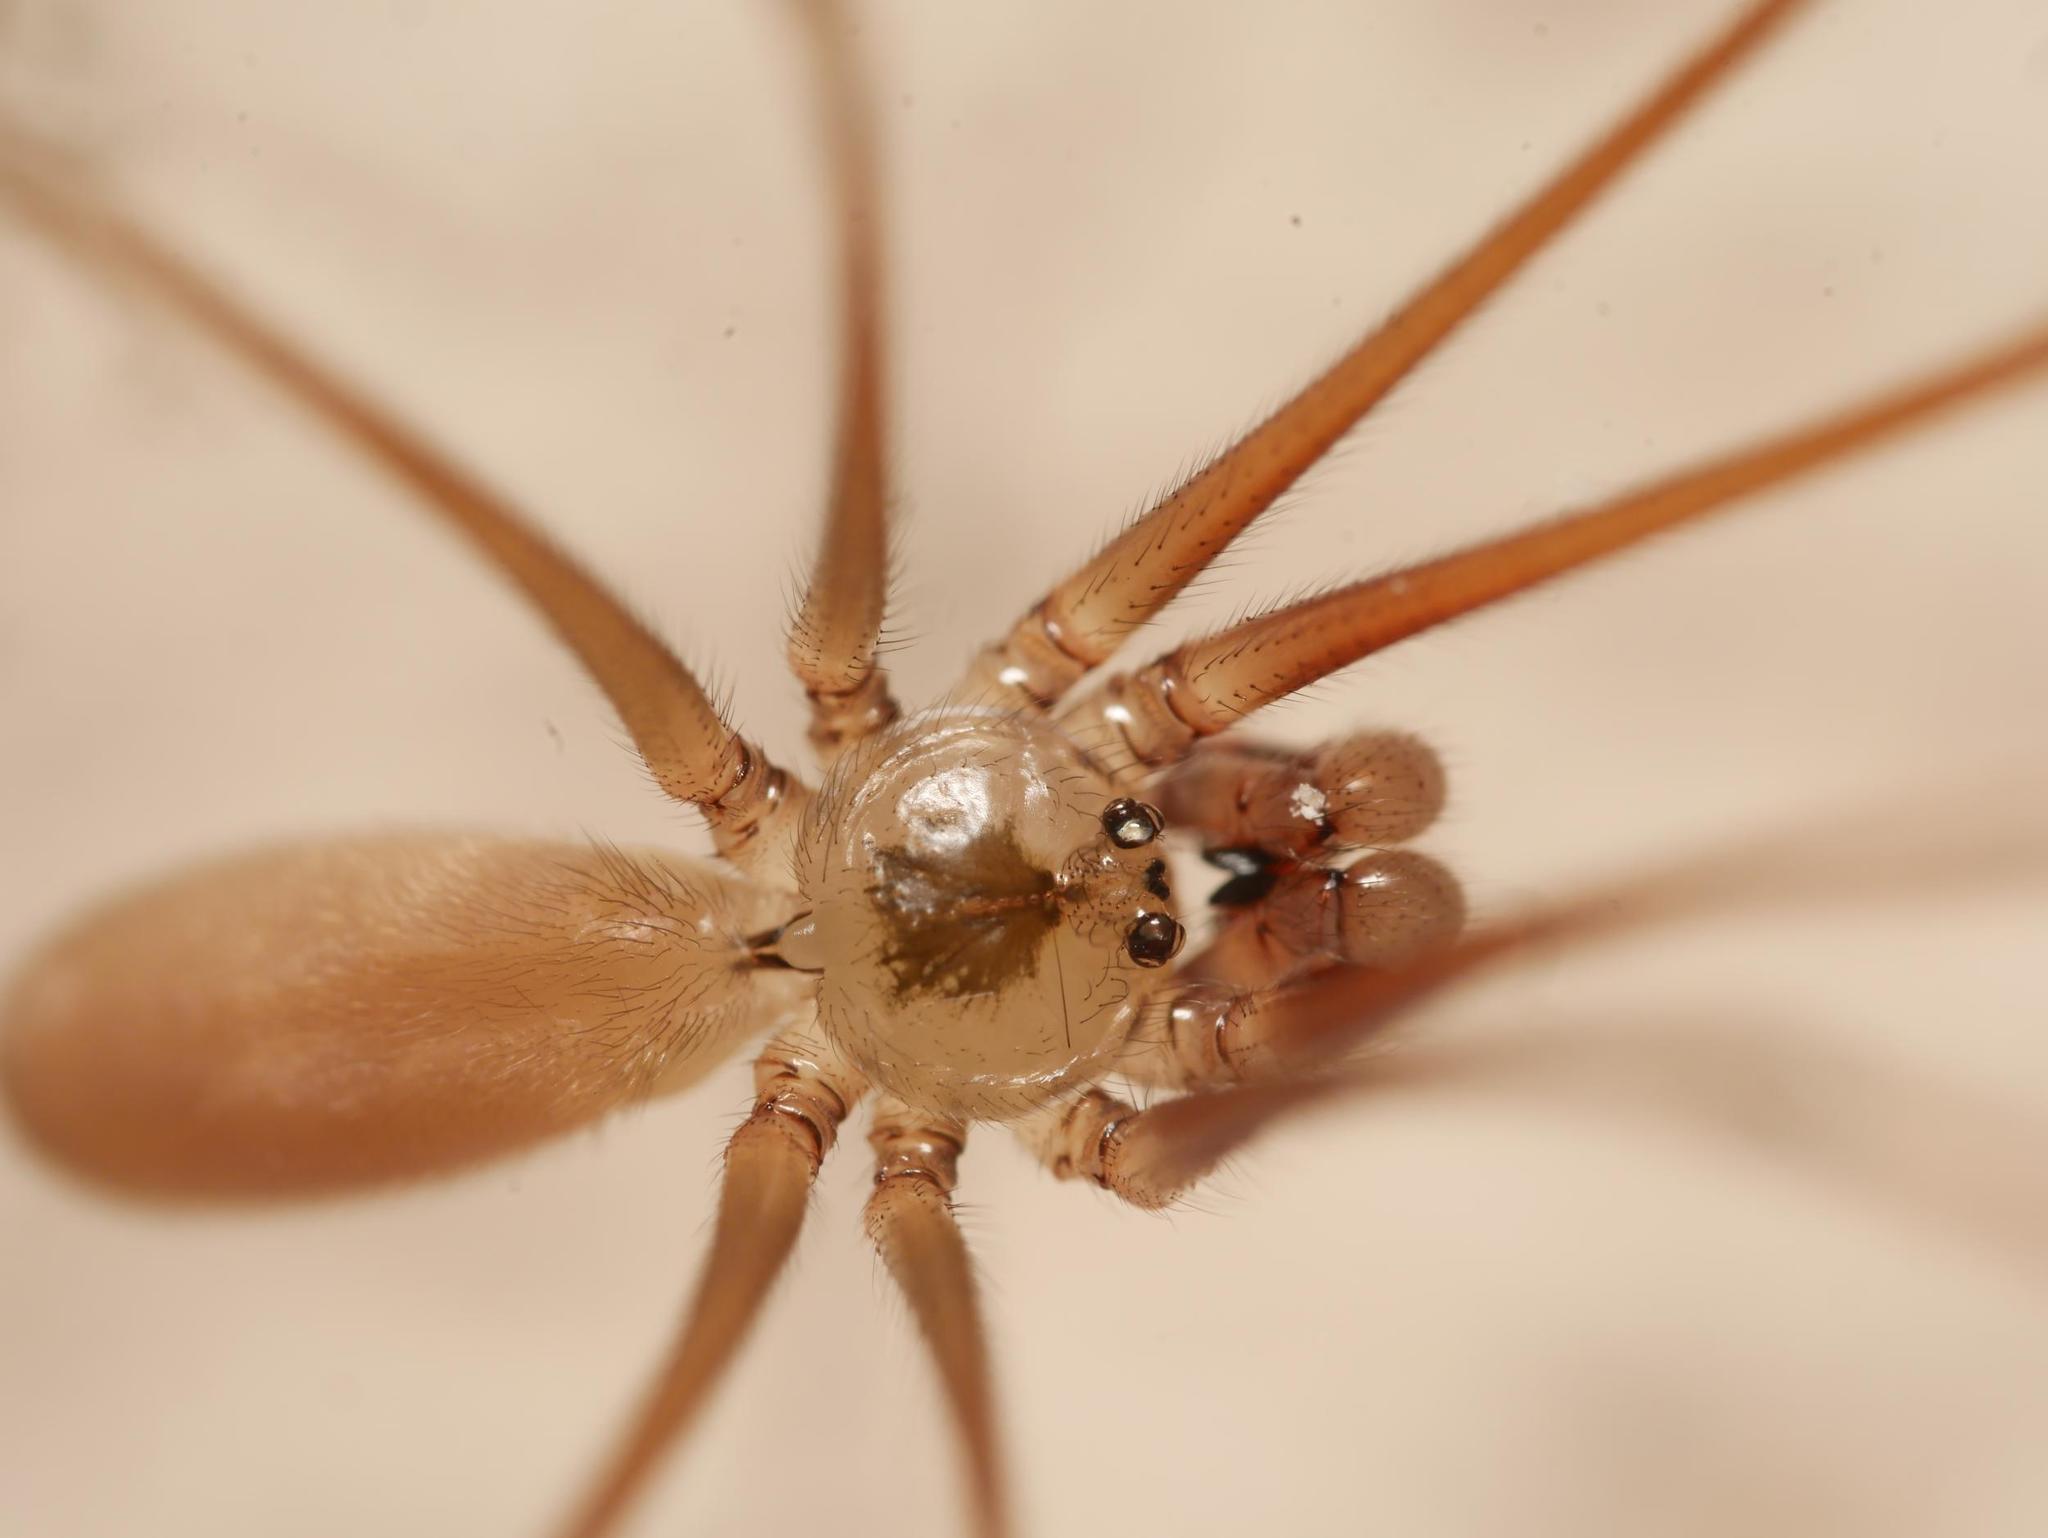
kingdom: Animalia
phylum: Arthropoda
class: Arachnida
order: Araneae
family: Pholcidae
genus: Pholcus
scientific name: Pholcus phalangioides
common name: Longbodied cellar spider
